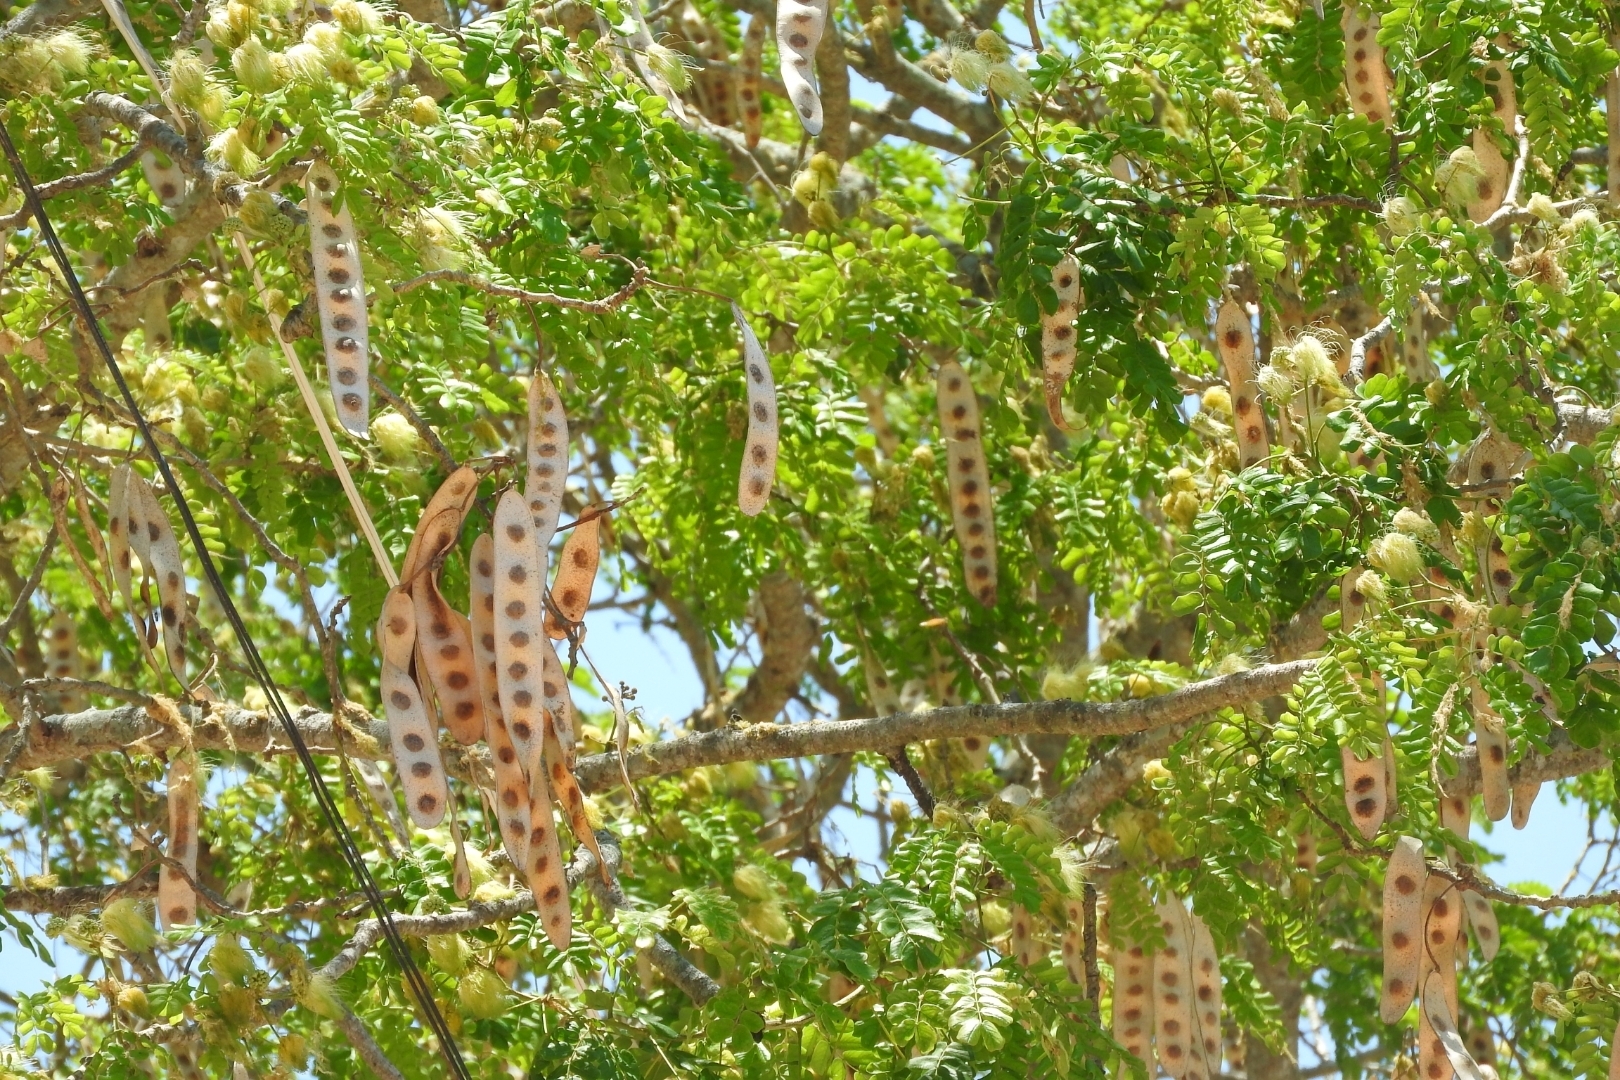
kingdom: Plantae
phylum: Tracheophyta
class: Magnoliopsida
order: Fabales
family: Fabaceae
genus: Albizia
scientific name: Albizia lebbeck
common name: Woman's tongue
